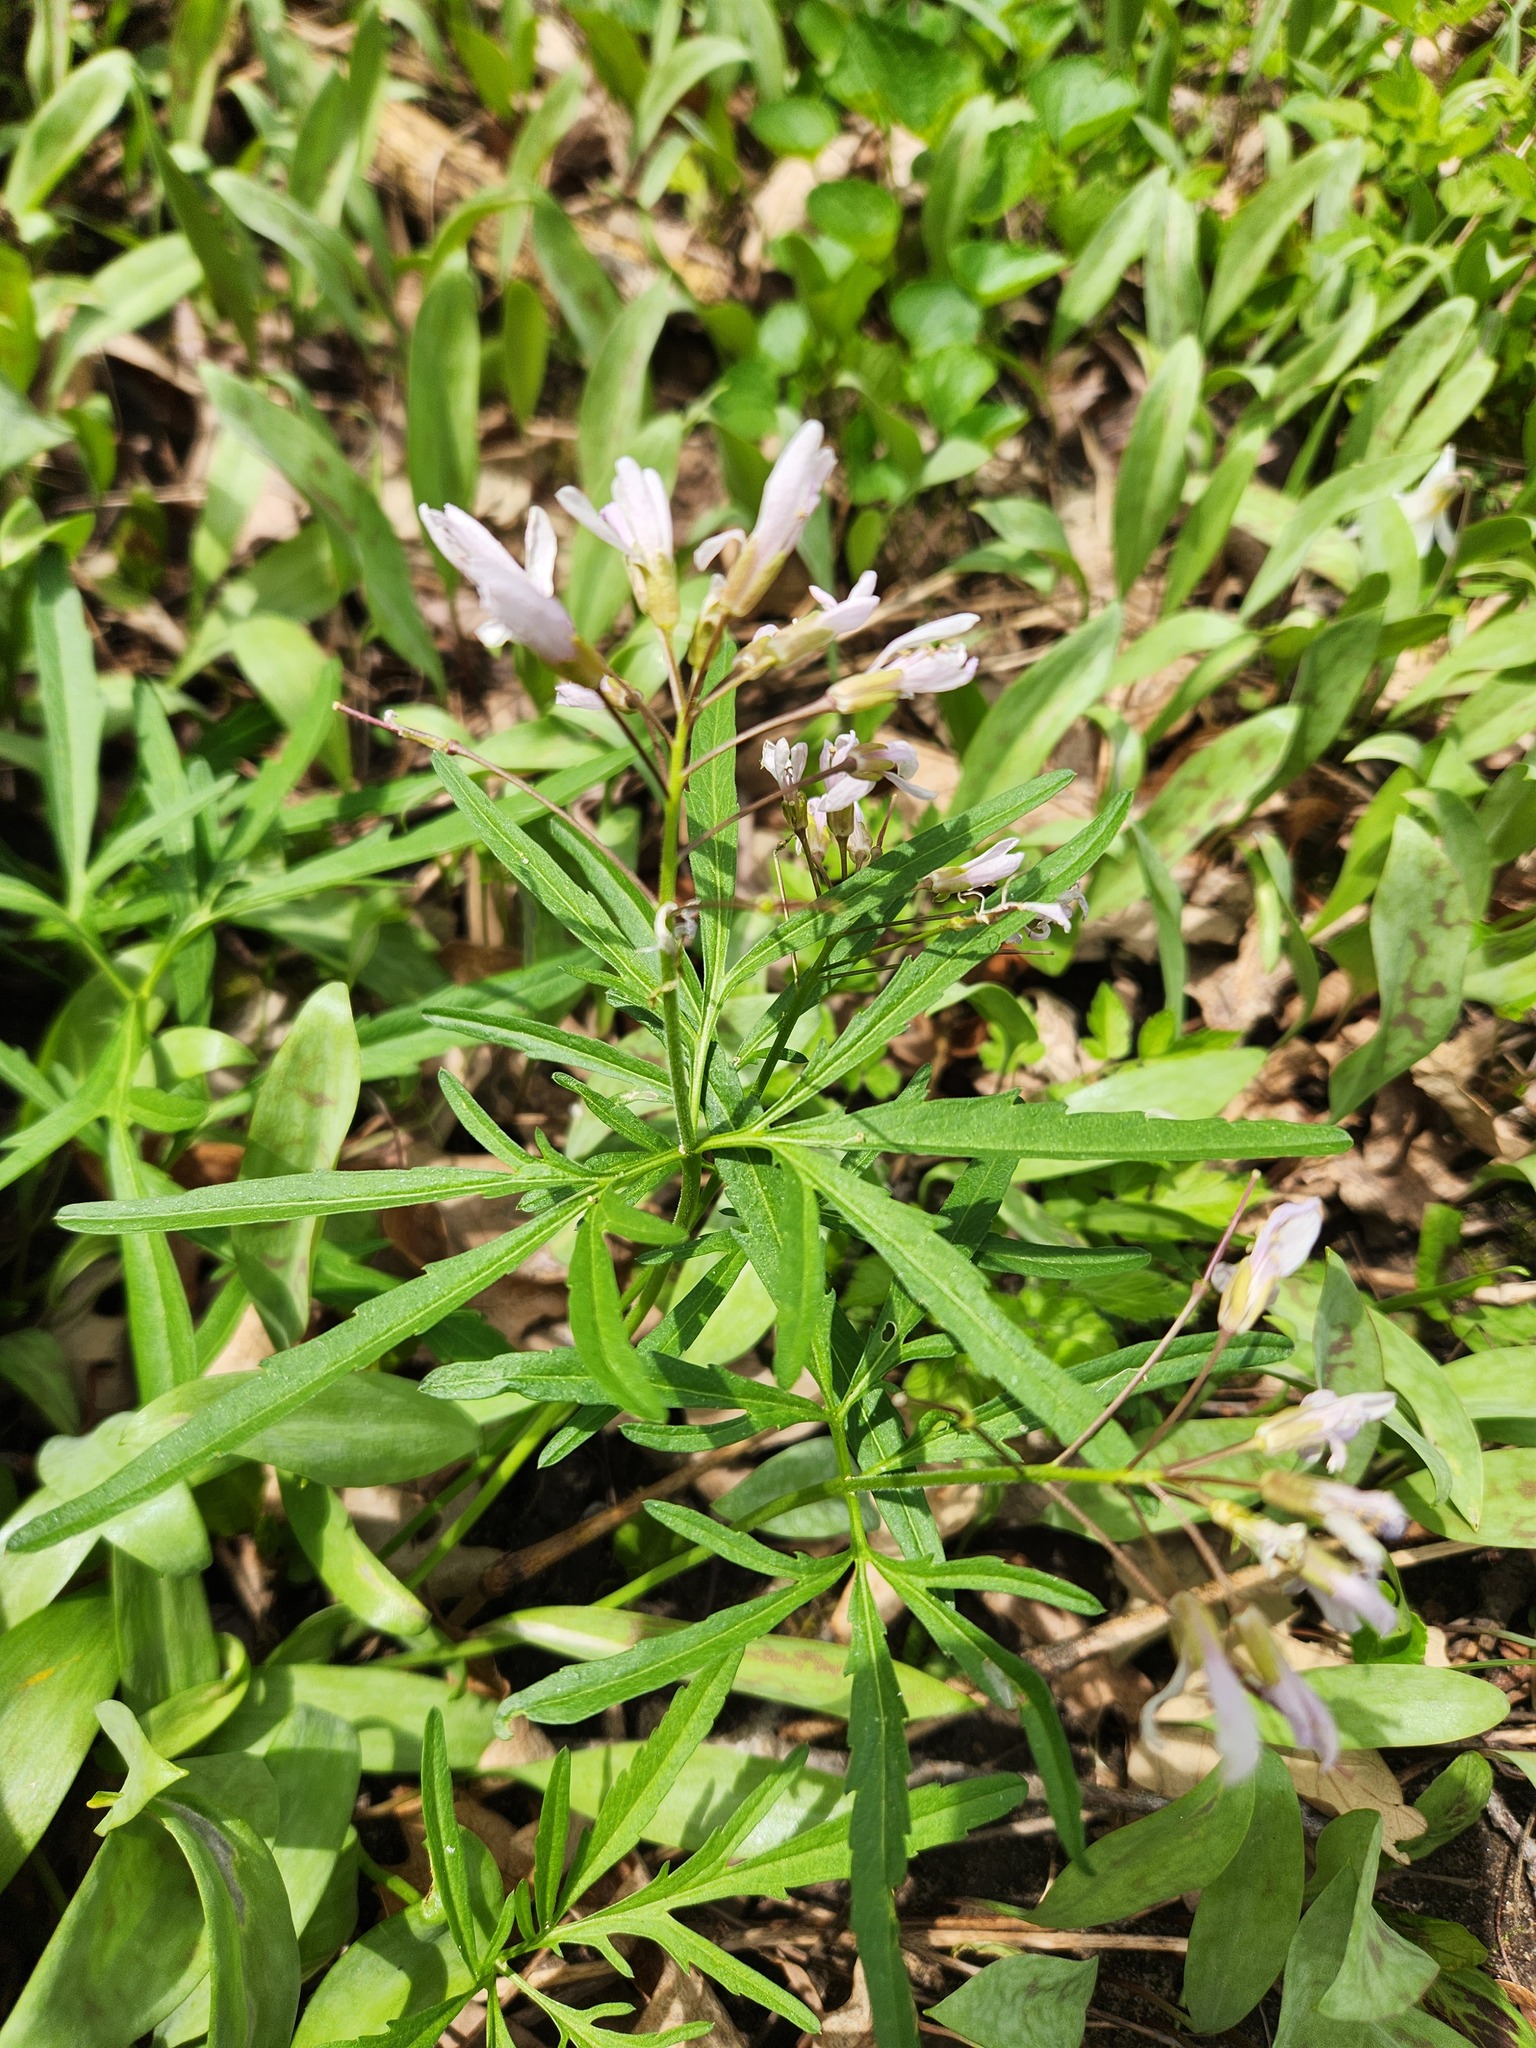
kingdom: Plantae
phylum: Tracheophyta
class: Magnoliopsida
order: Brassicales
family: Brassicaceae
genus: Cardamine
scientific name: Cardamine concatenata
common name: Cut-leaf toothcup
